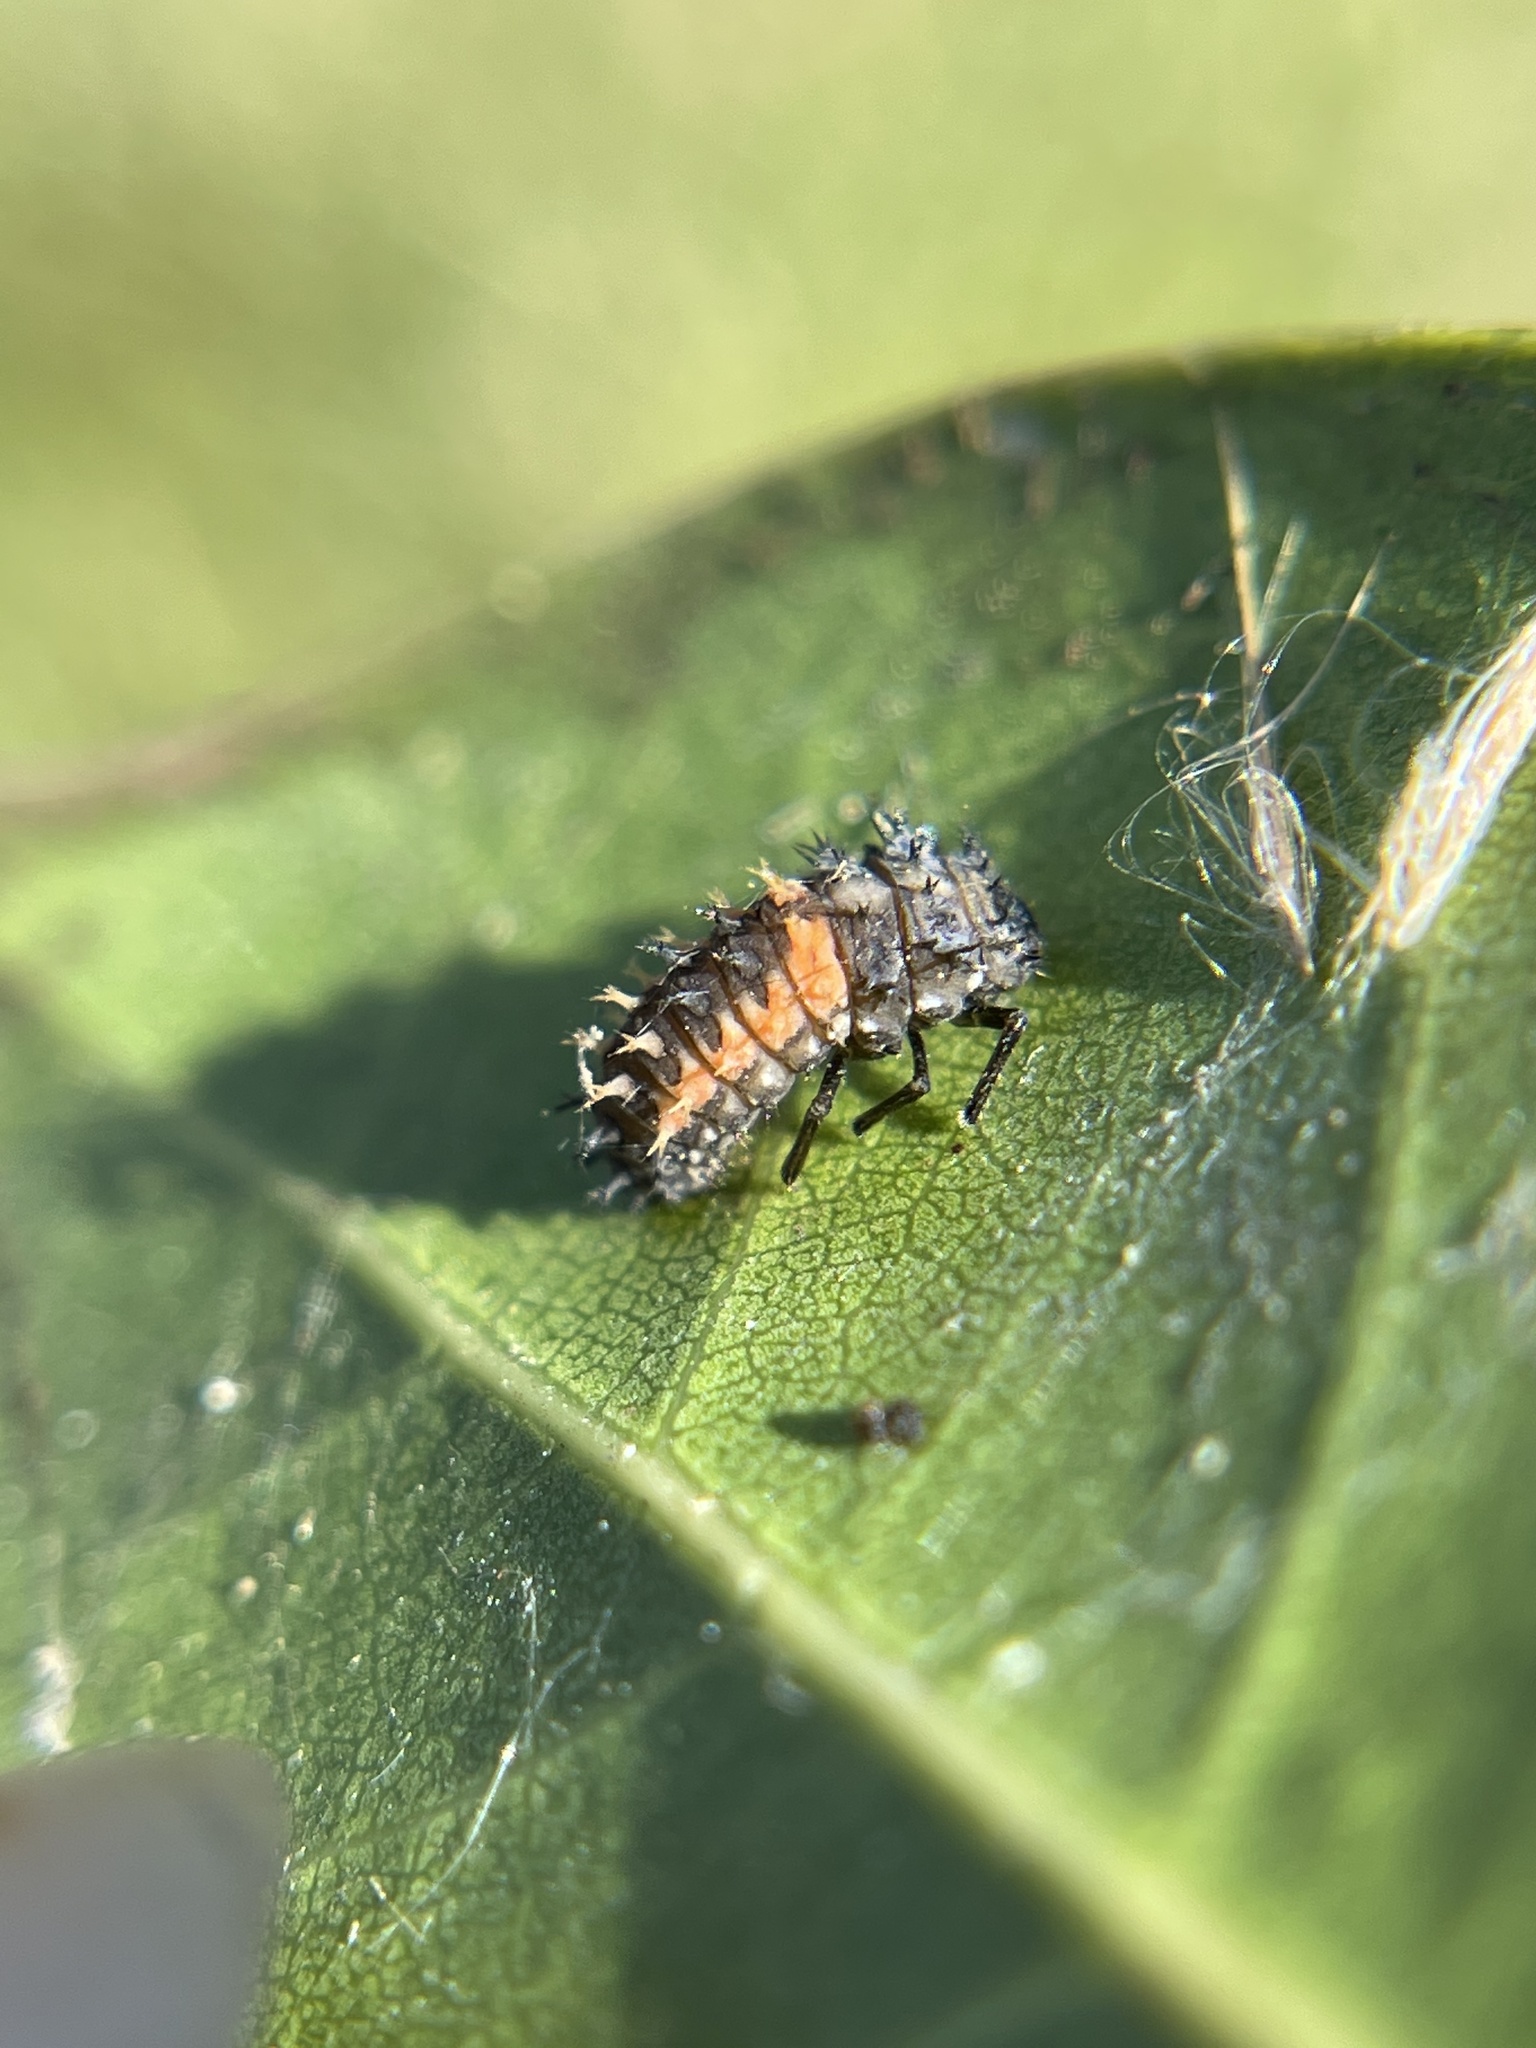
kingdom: Animalia
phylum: Arthropoda
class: Insecta
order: Coleoptera
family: Coccinellidae
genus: Harmonia
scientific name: Harmonia axyridis
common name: Harlequin ladybird
